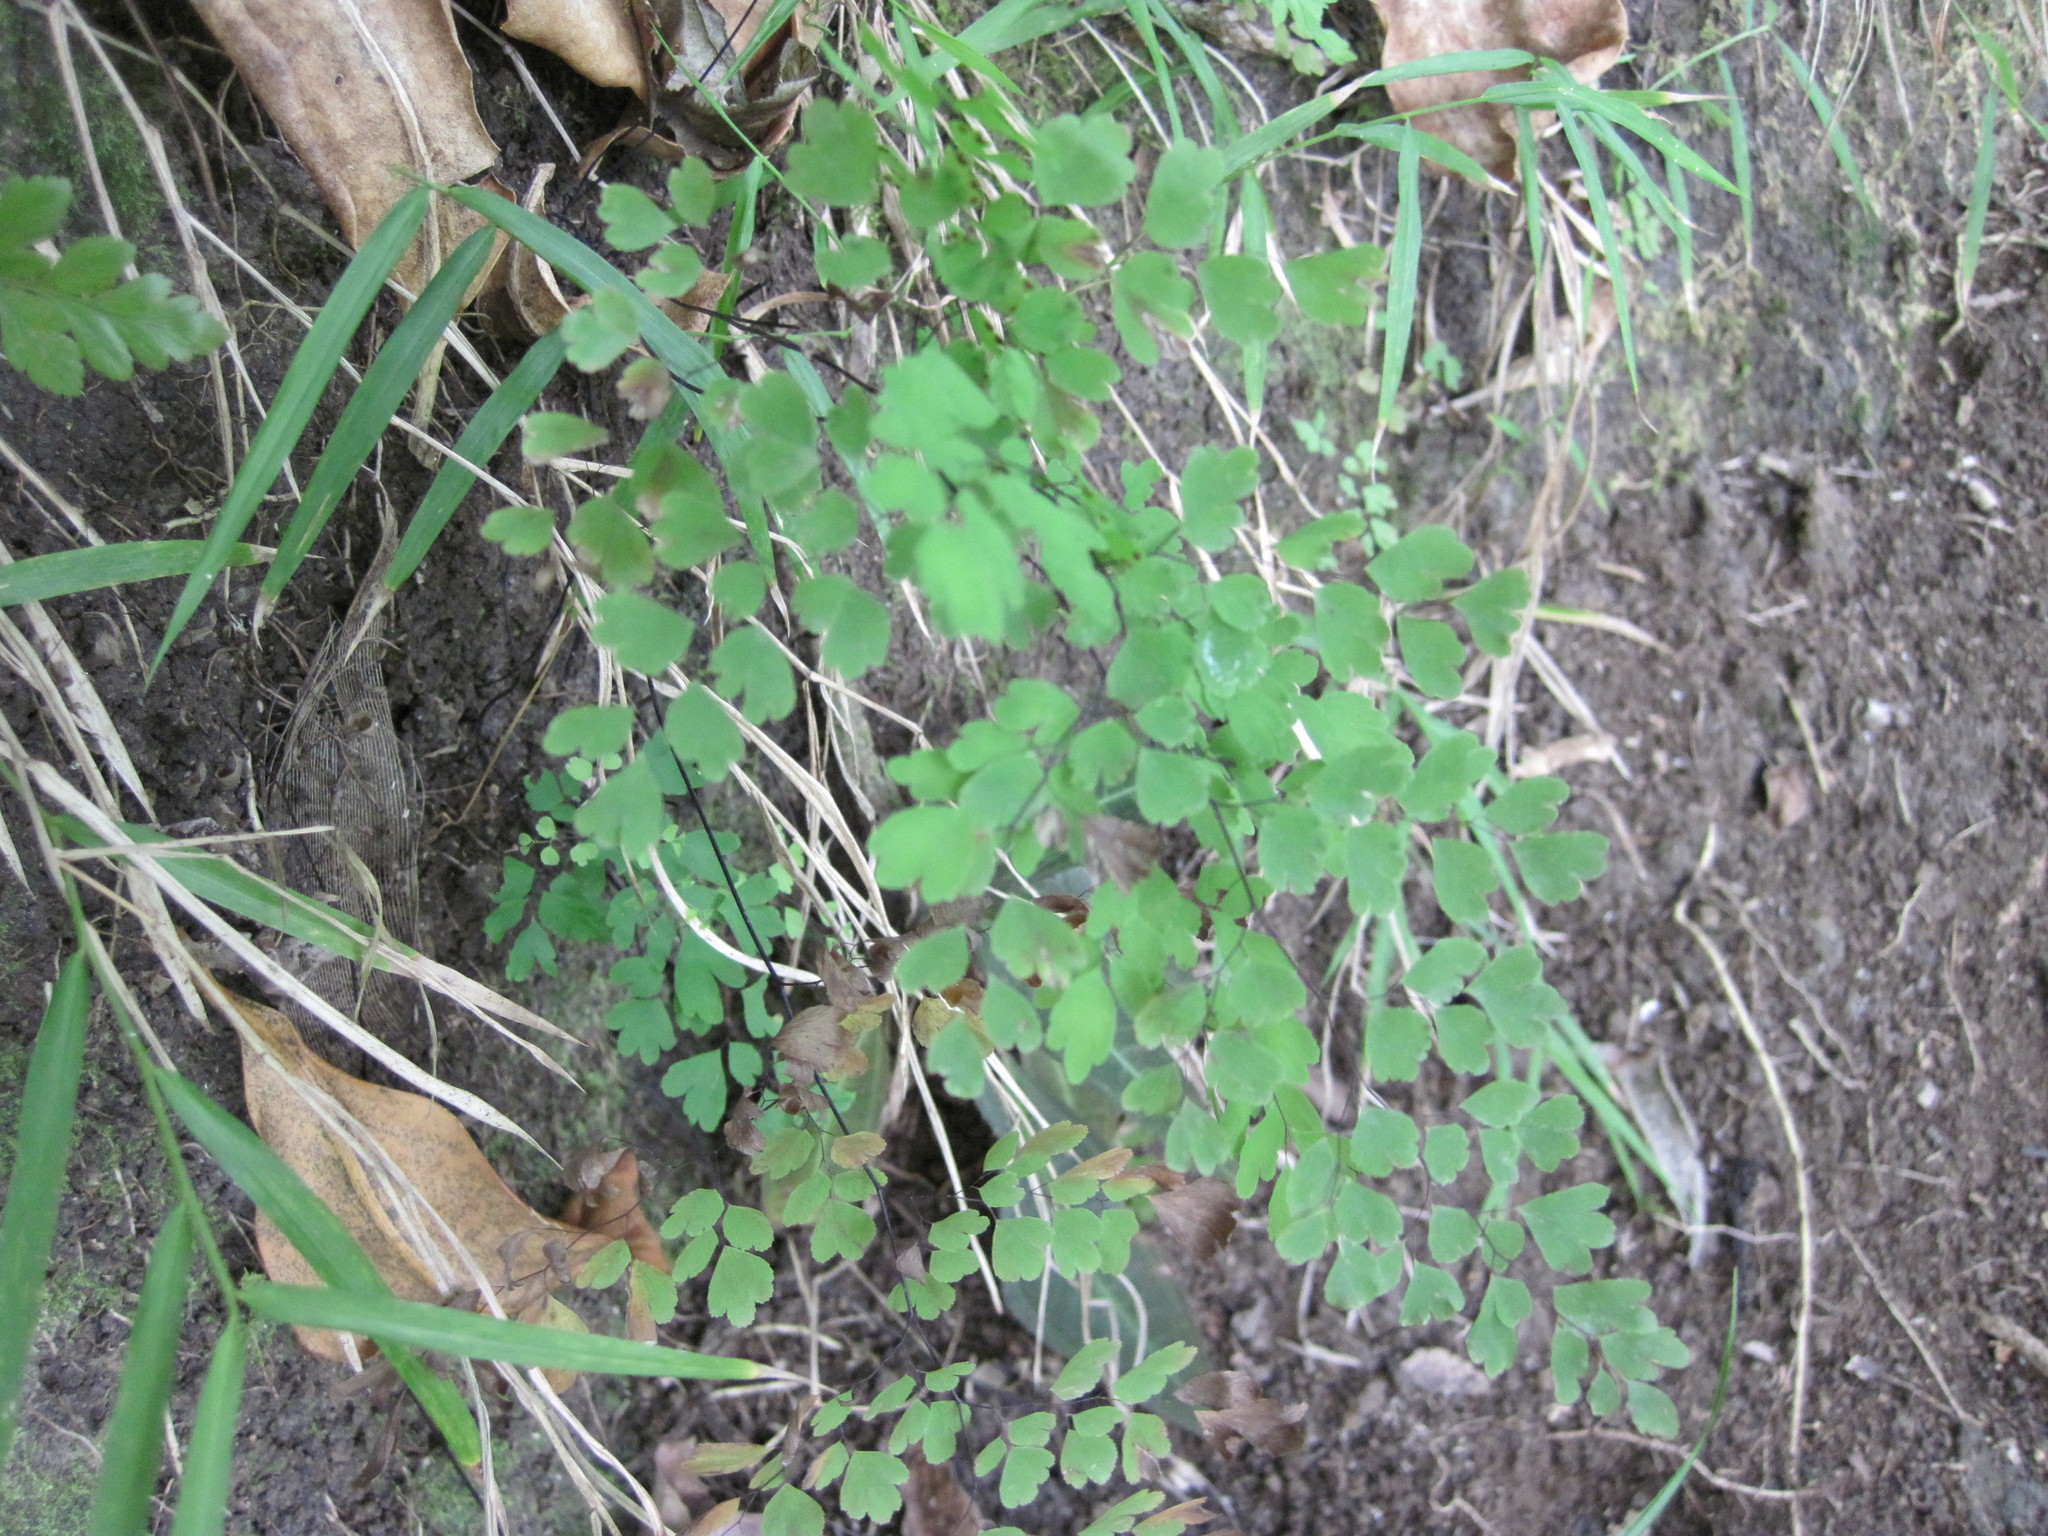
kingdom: Plantae
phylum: Tracheophyta
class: Polypodiopsida
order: Polypodiales
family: Pteridaceae
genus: Adiantum
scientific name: Adiantum raddianum
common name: Delta maidenhair fern
